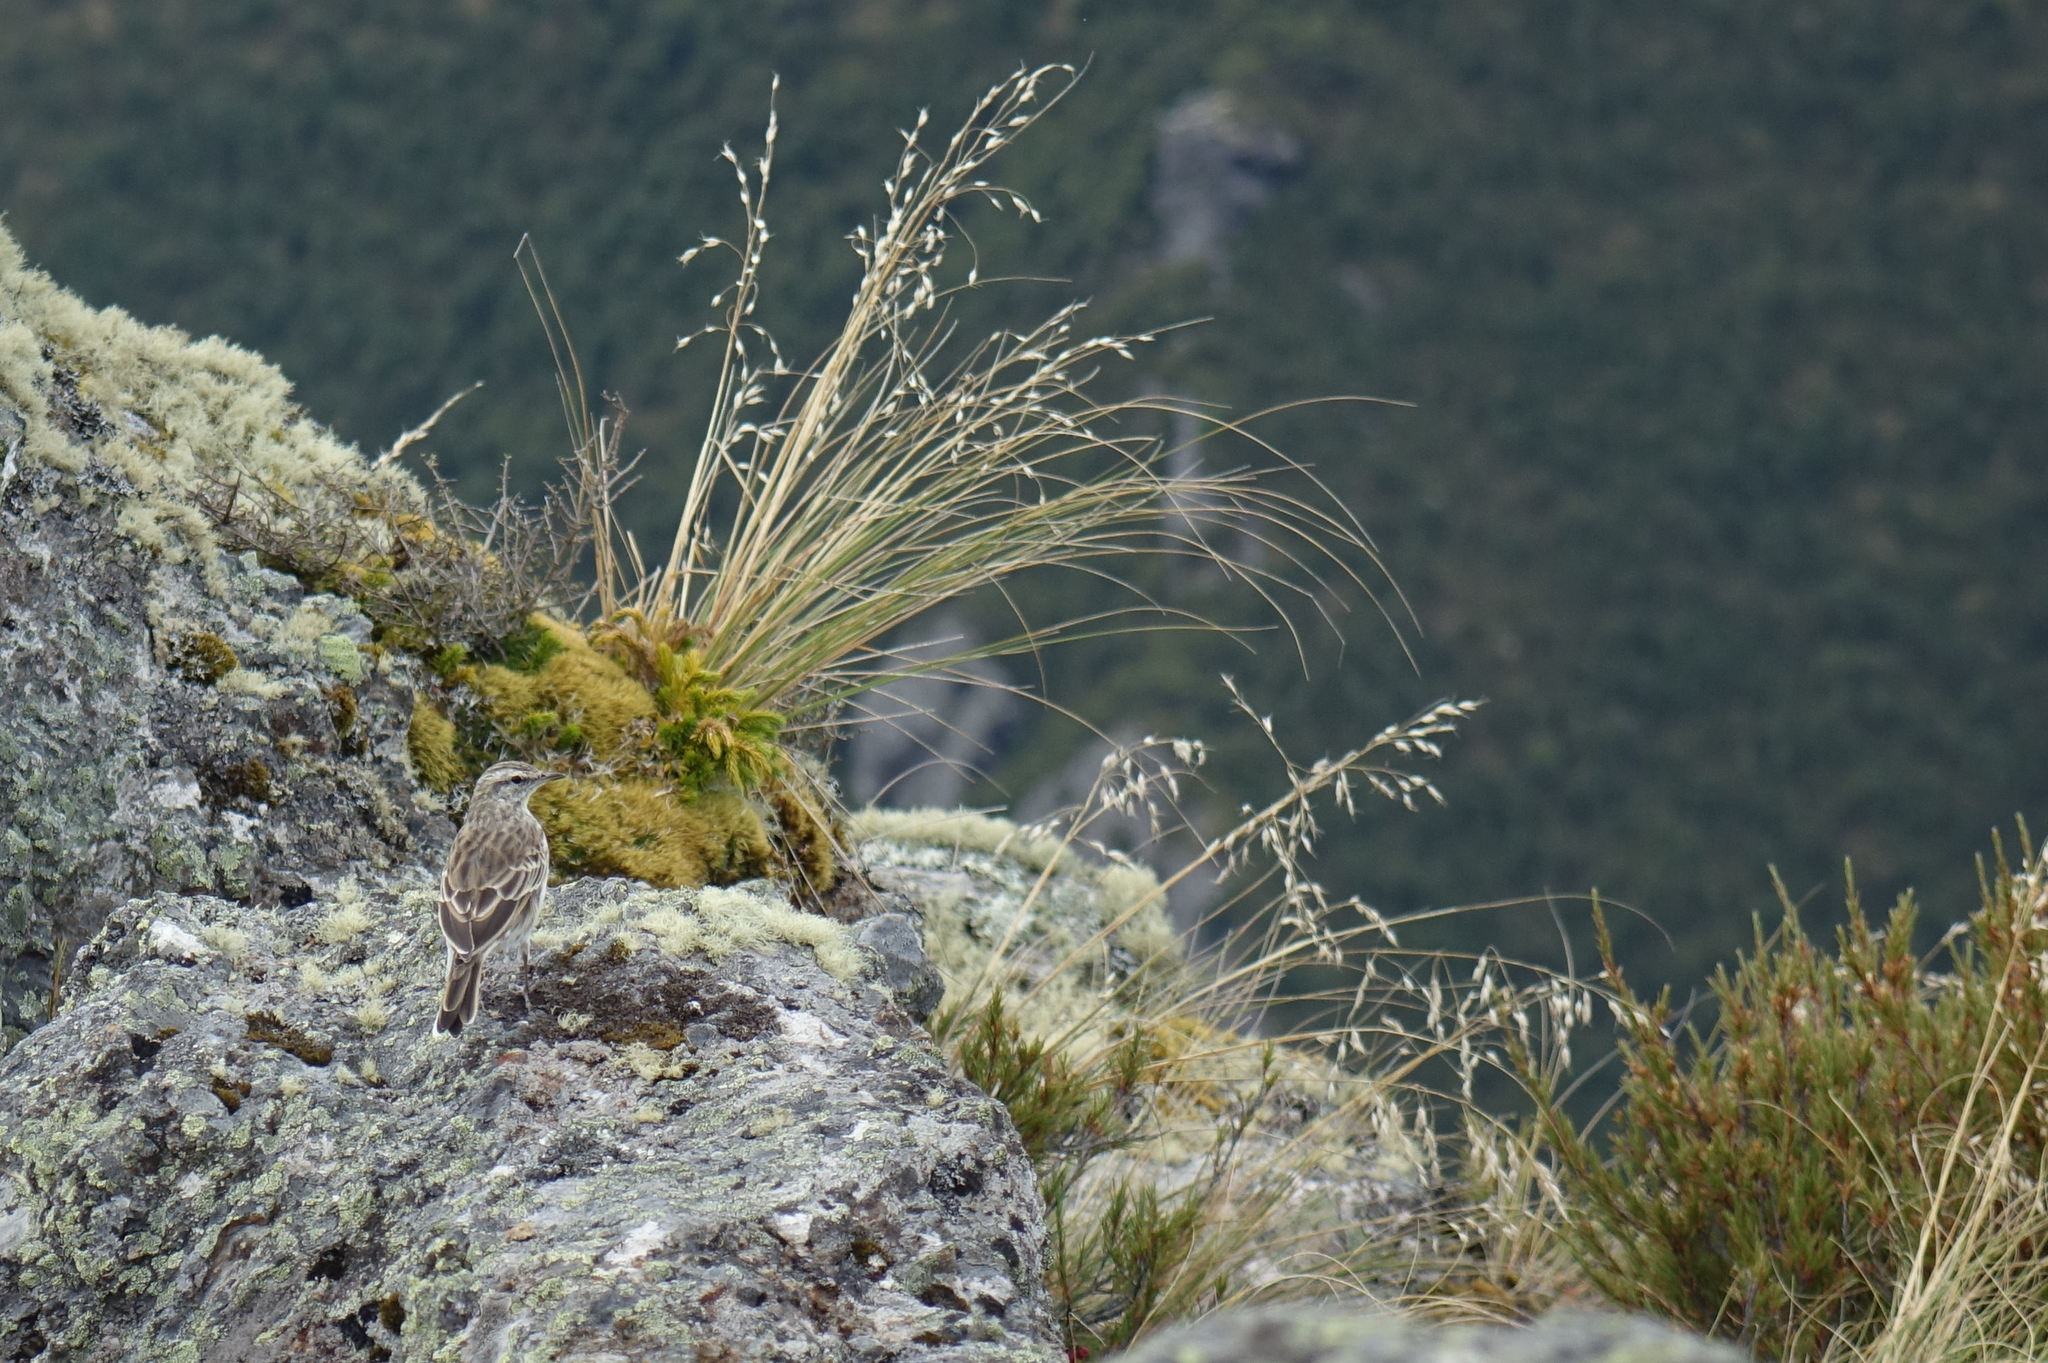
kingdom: Animalia
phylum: Chordata
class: Aves
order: Passeriformes
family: Motacillidae
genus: Anthus
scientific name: Anthus novaeseelandiae
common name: New zealand pipit
